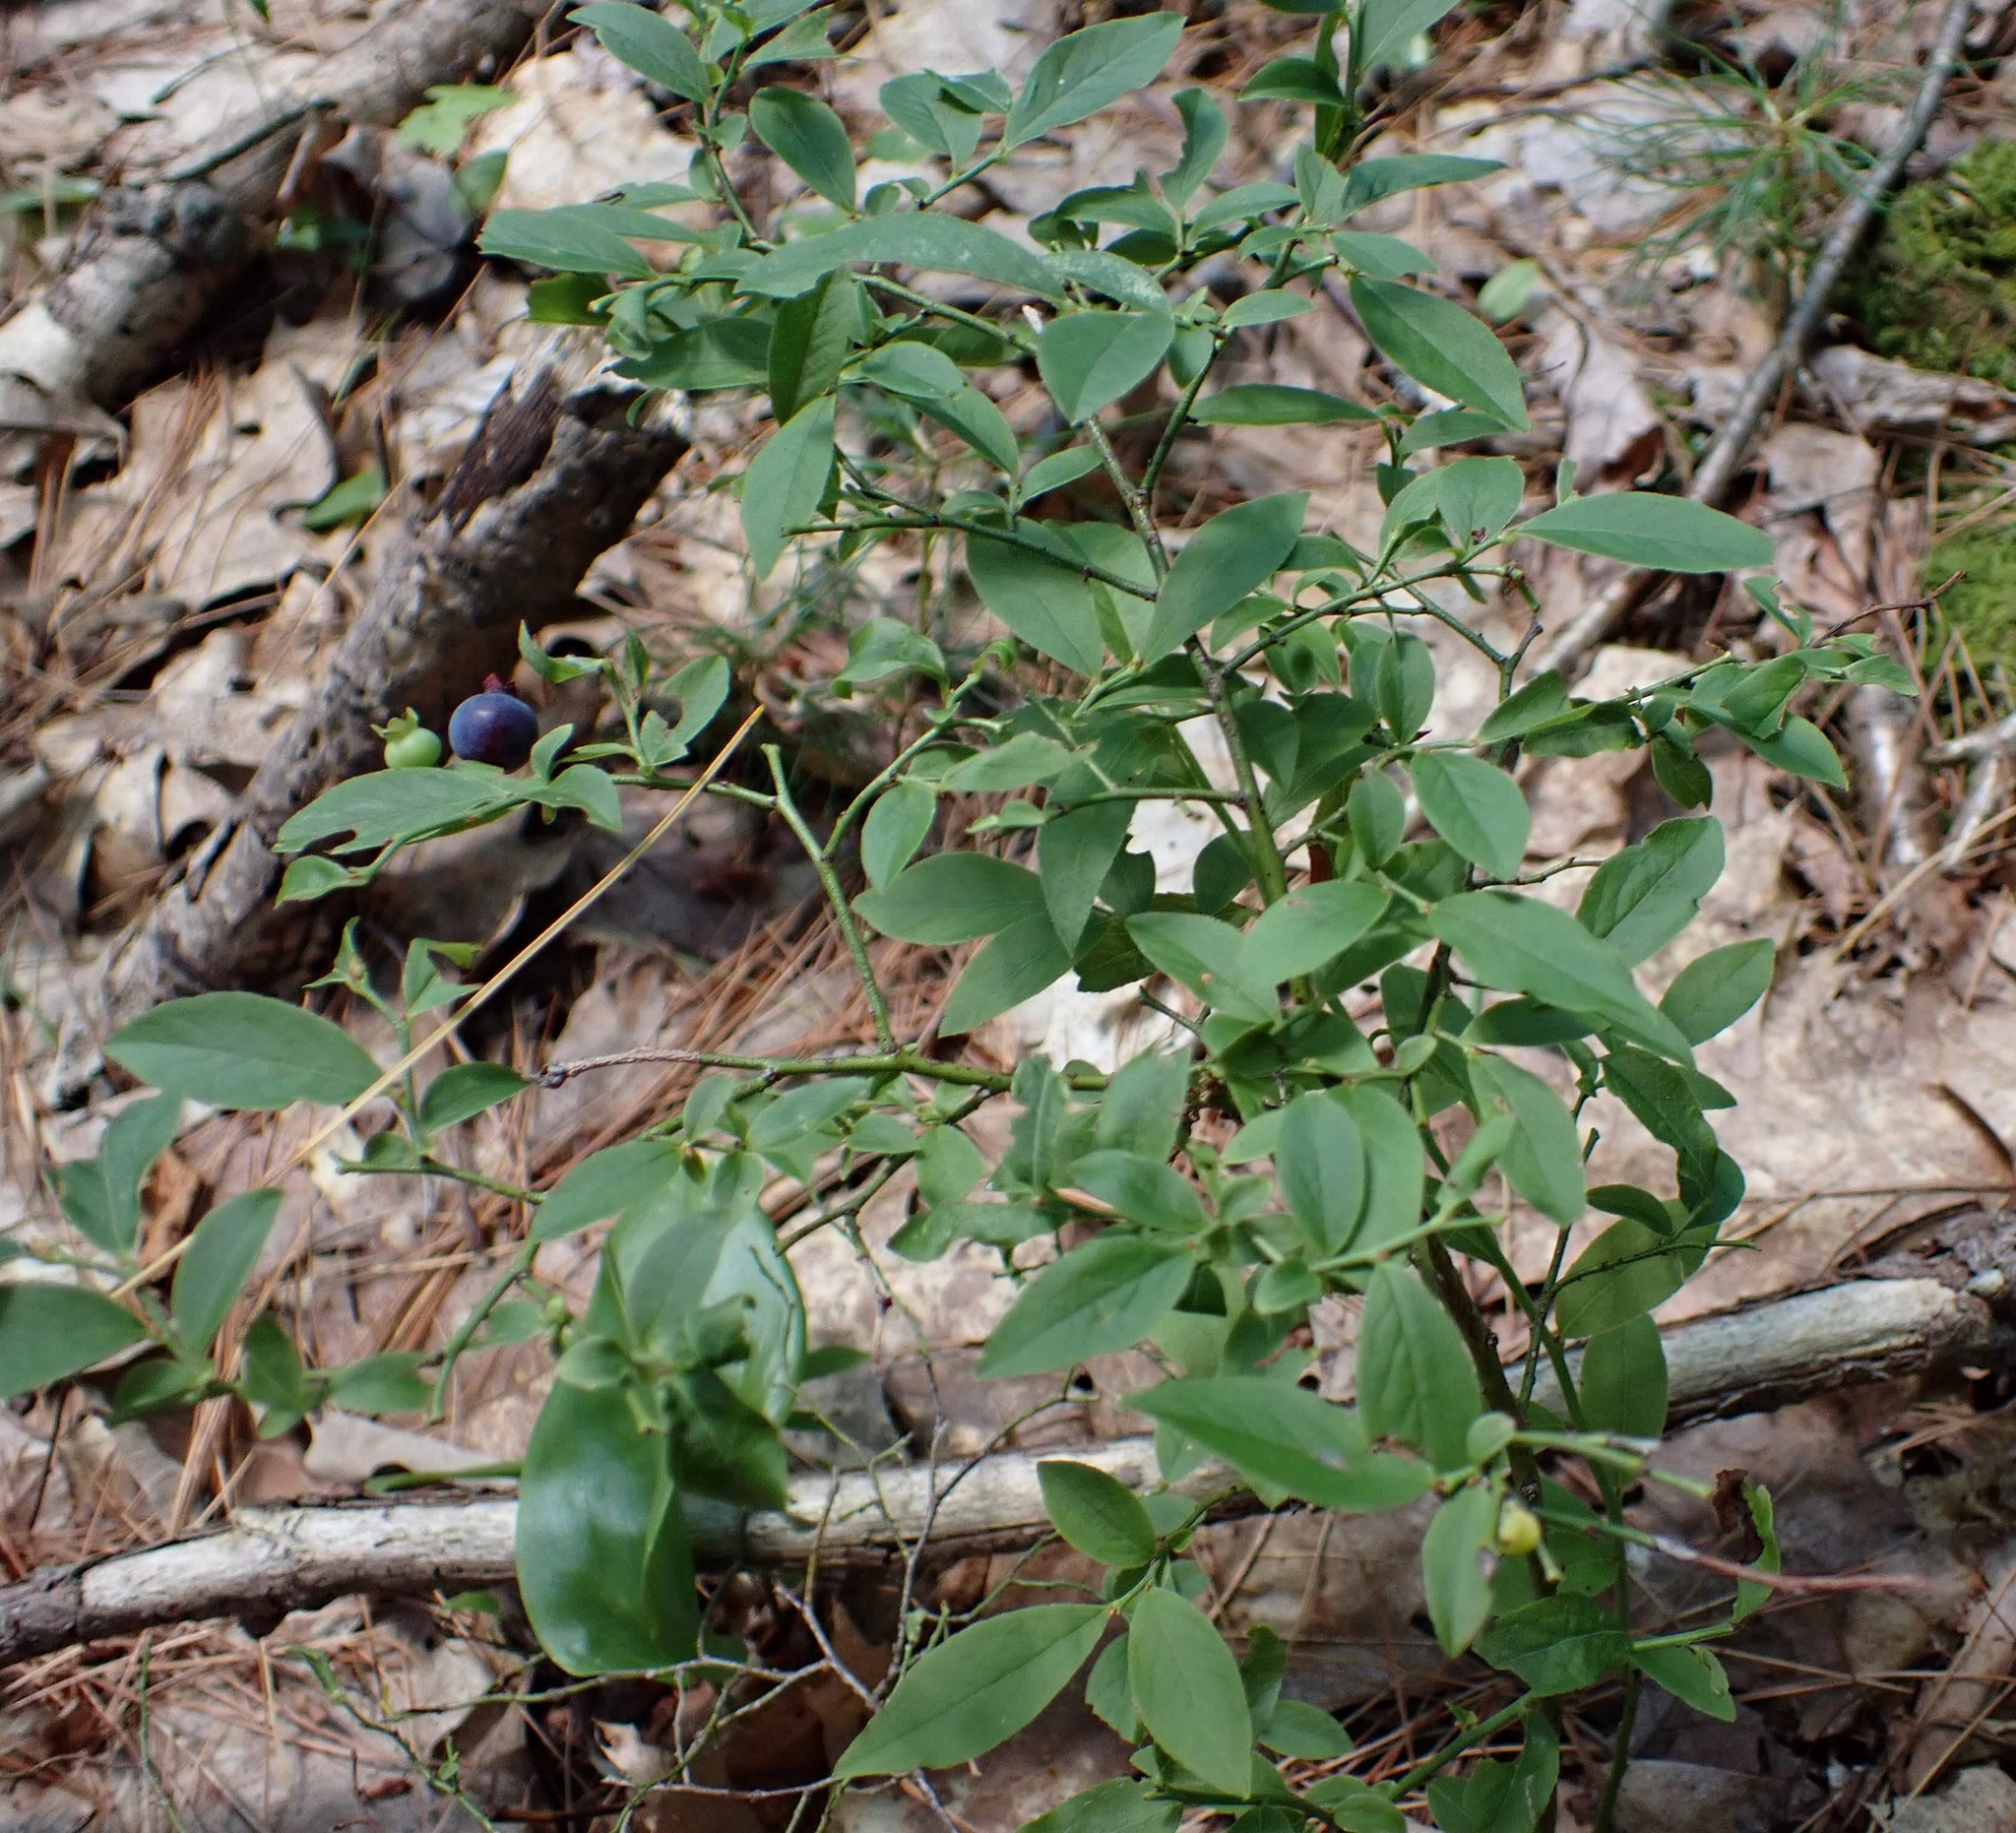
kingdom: Plantae
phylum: Tracheophyta
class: Magnoliopsida
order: Ericales
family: Ericaceae
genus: Vaccinium
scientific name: Vaccinium angustifolium
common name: Early lowbush blueberry
